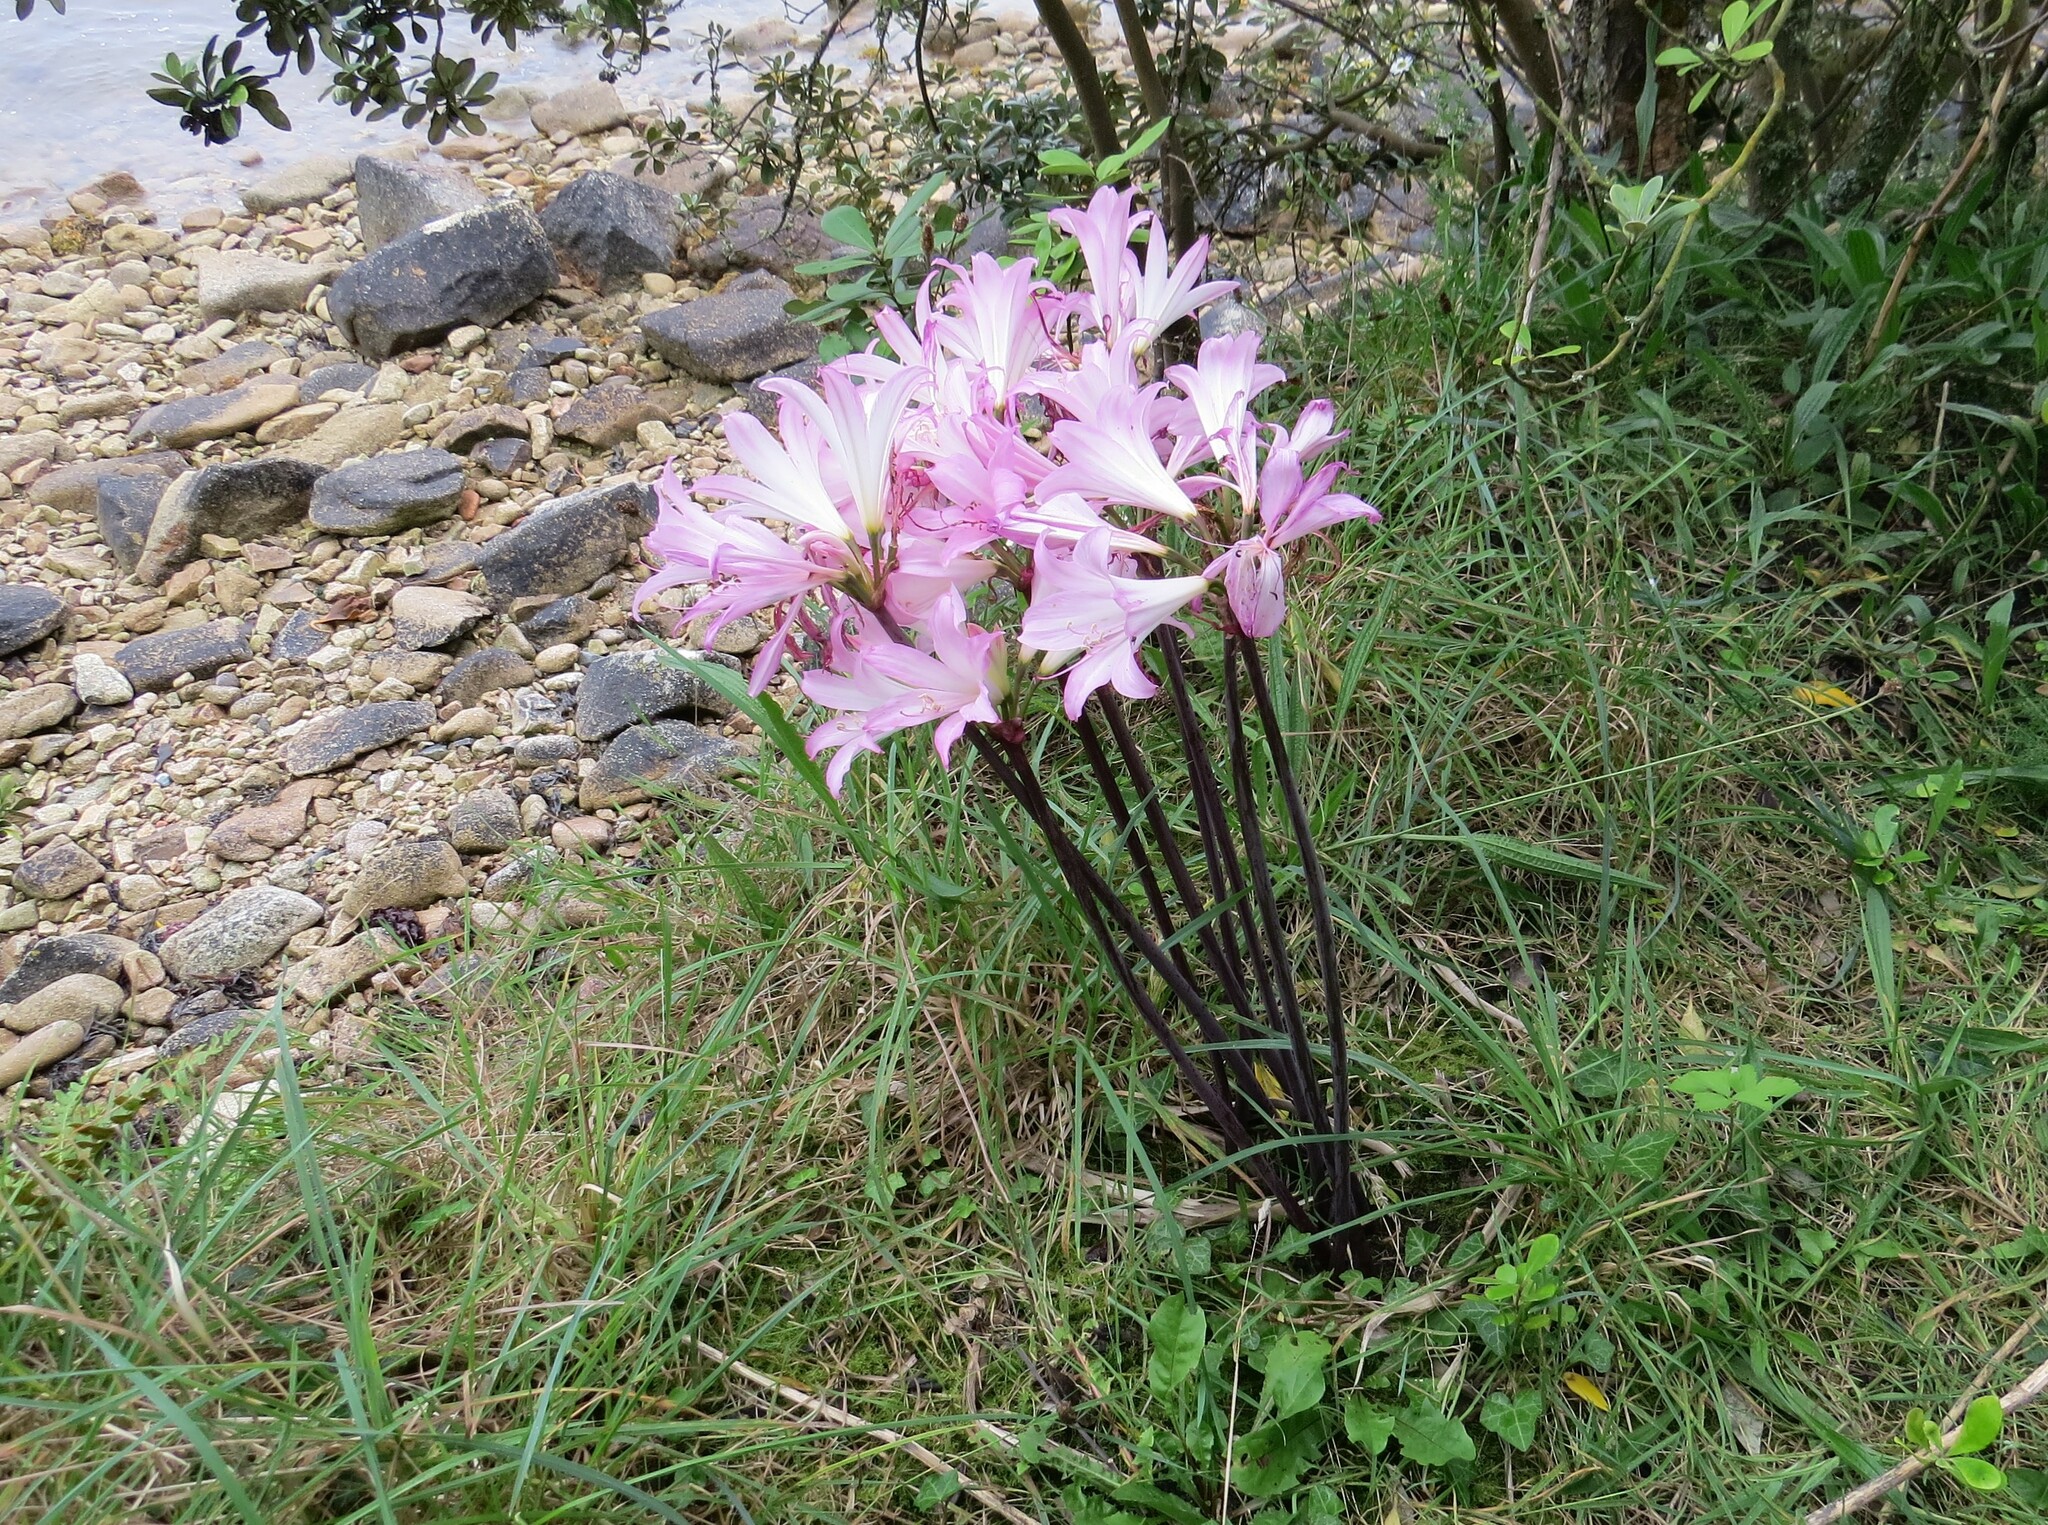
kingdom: Plantae
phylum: Tracheophyta
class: Liliopsida
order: Asparagales
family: Amaryllidaceae
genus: Amaryllis
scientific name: Amaryllis belladonna
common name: Jersey lily
